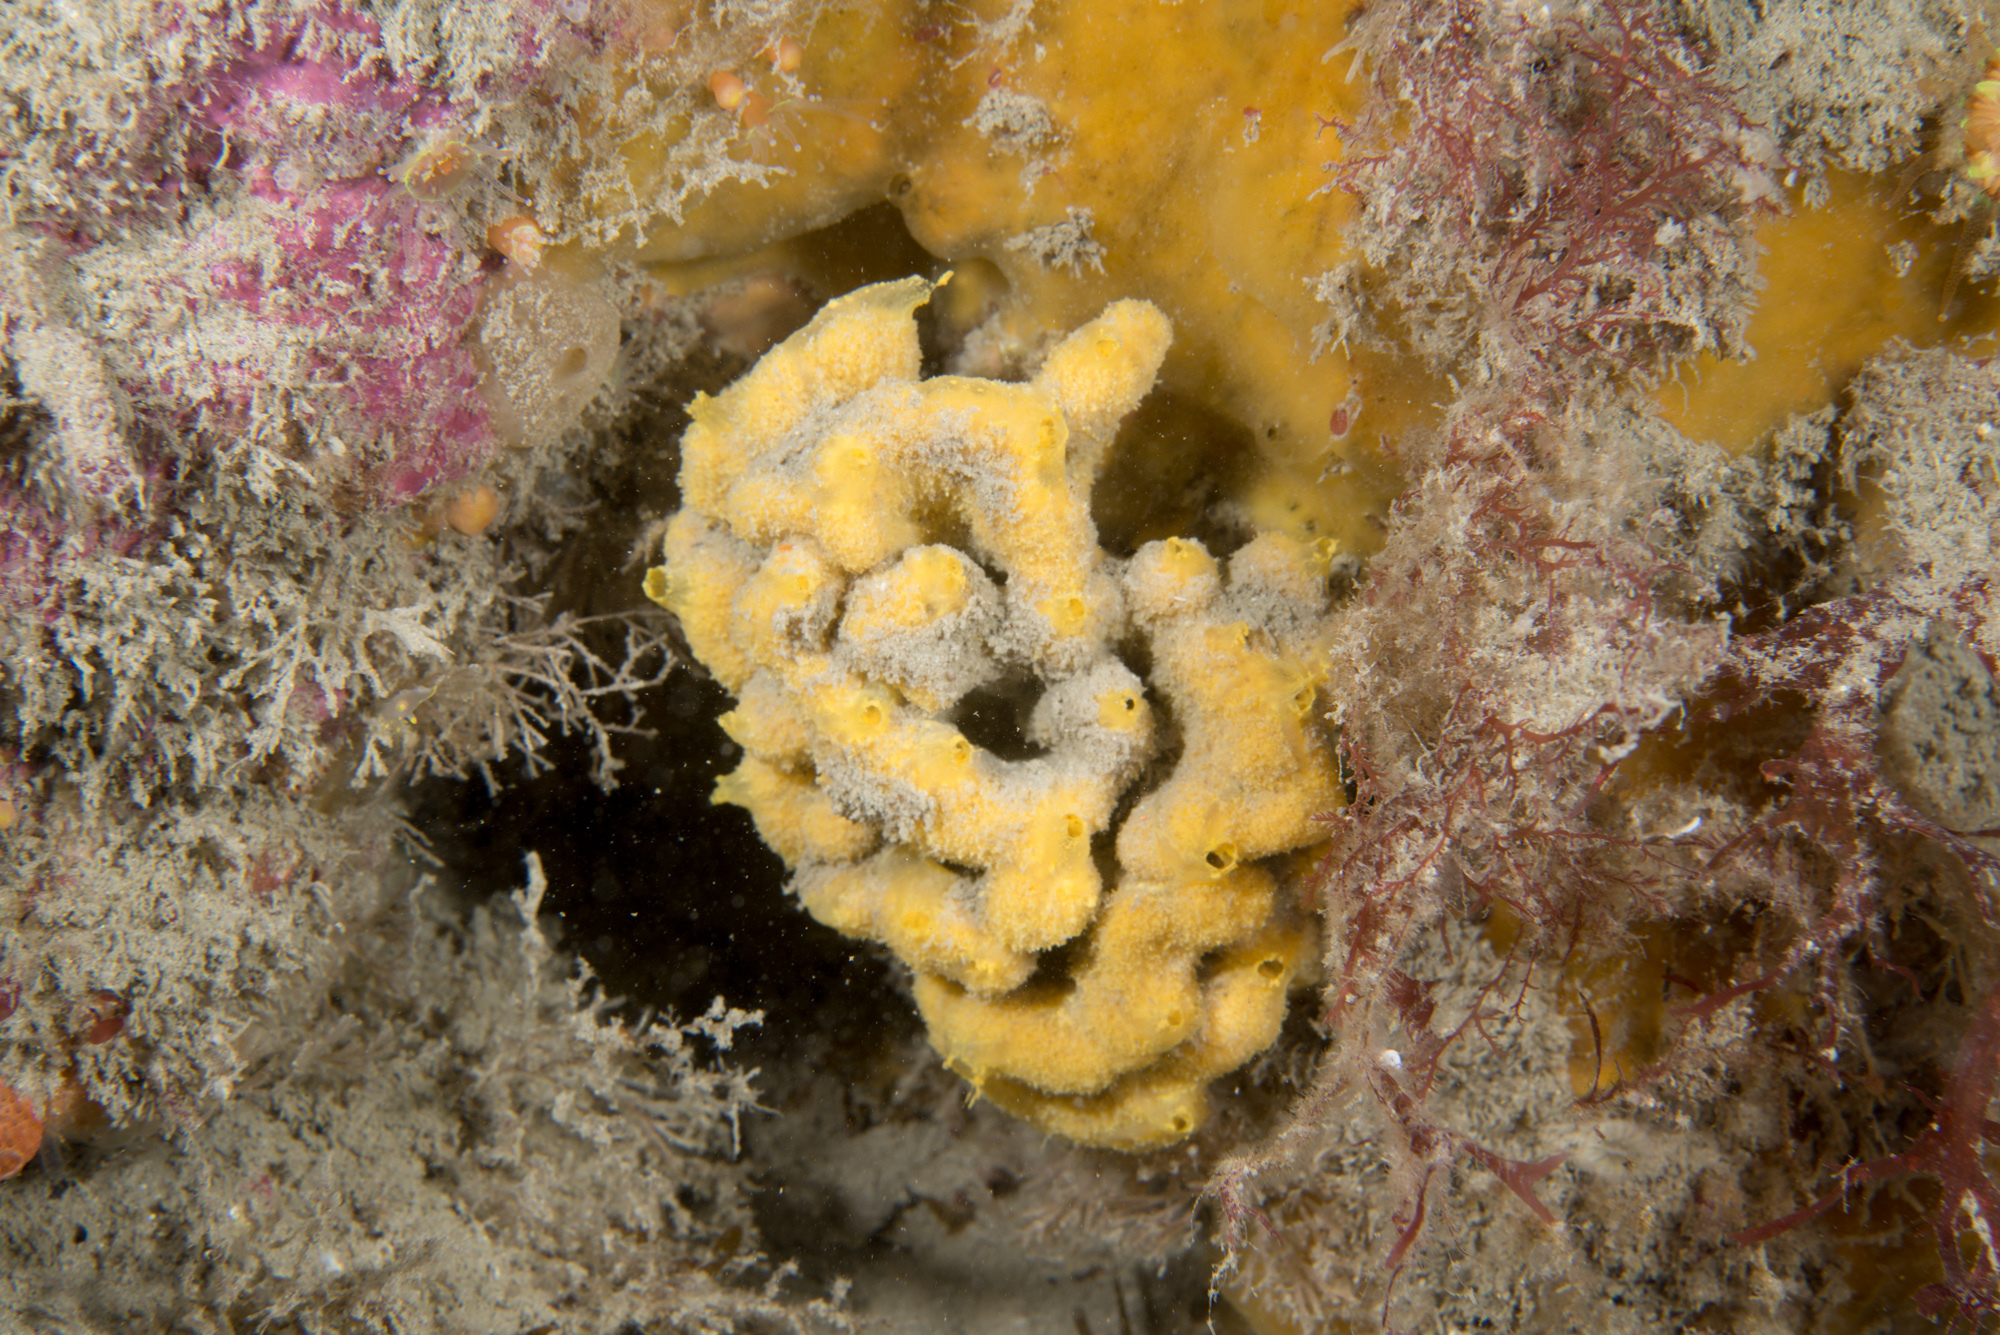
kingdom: Animalia
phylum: Porifera
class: Demospongiae
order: Axinellida
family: Axinellidae
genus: Axinella
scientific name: Axinella damicornis
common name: Crumpled duster sponge
